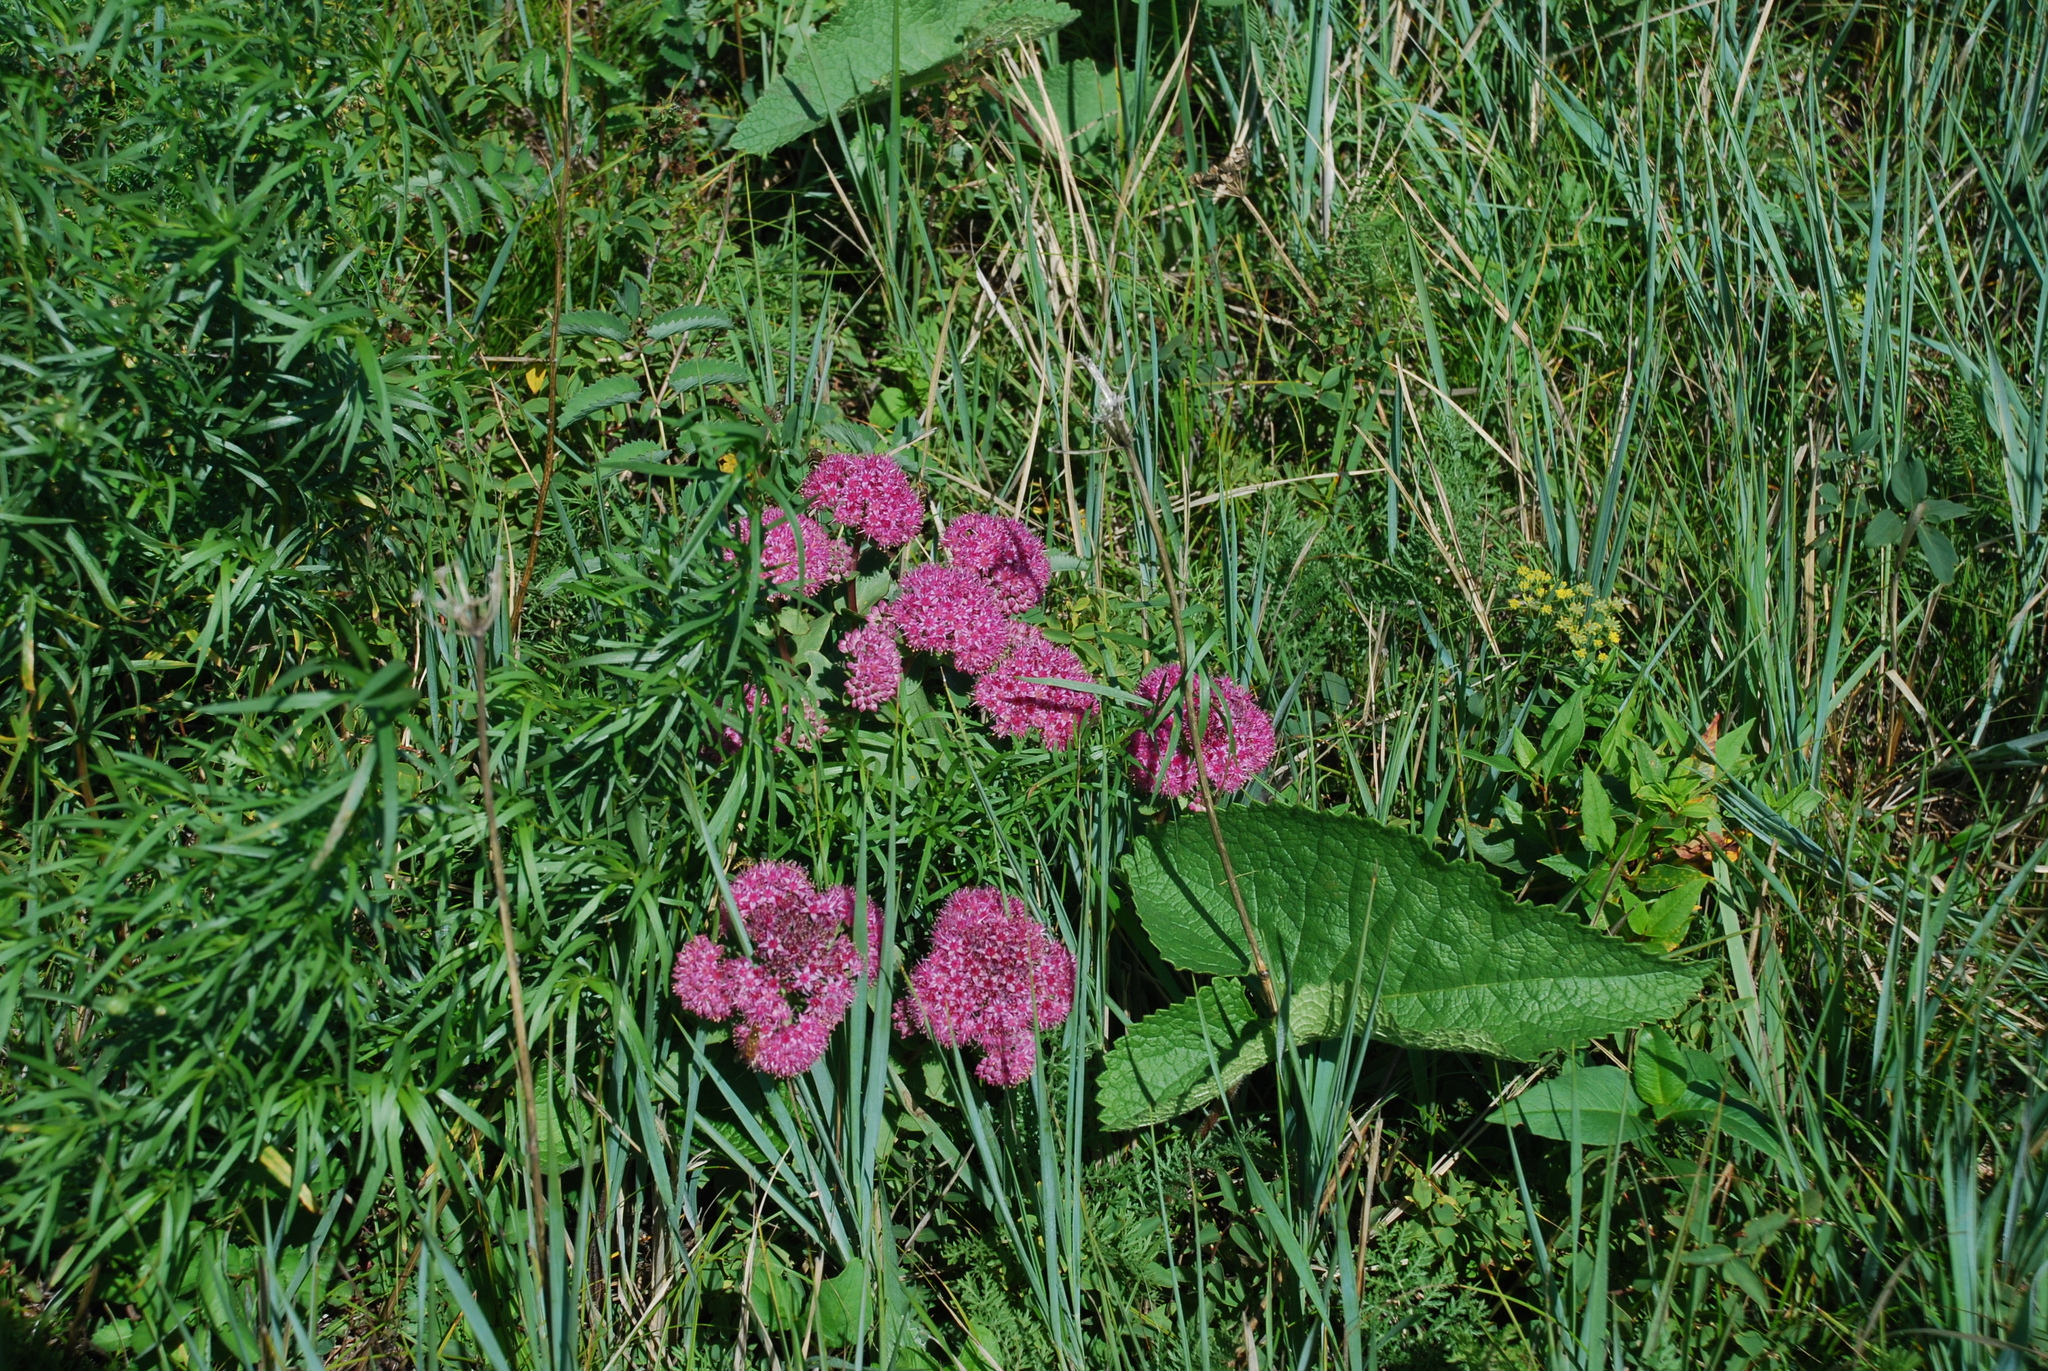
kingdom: Plantae
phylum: Tracheophyta
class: Magnoliopsida
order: Saxifragales
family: Crassulaceae
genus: Hylotelephium
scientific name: Hylotelephium telephium
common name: Live-forever
